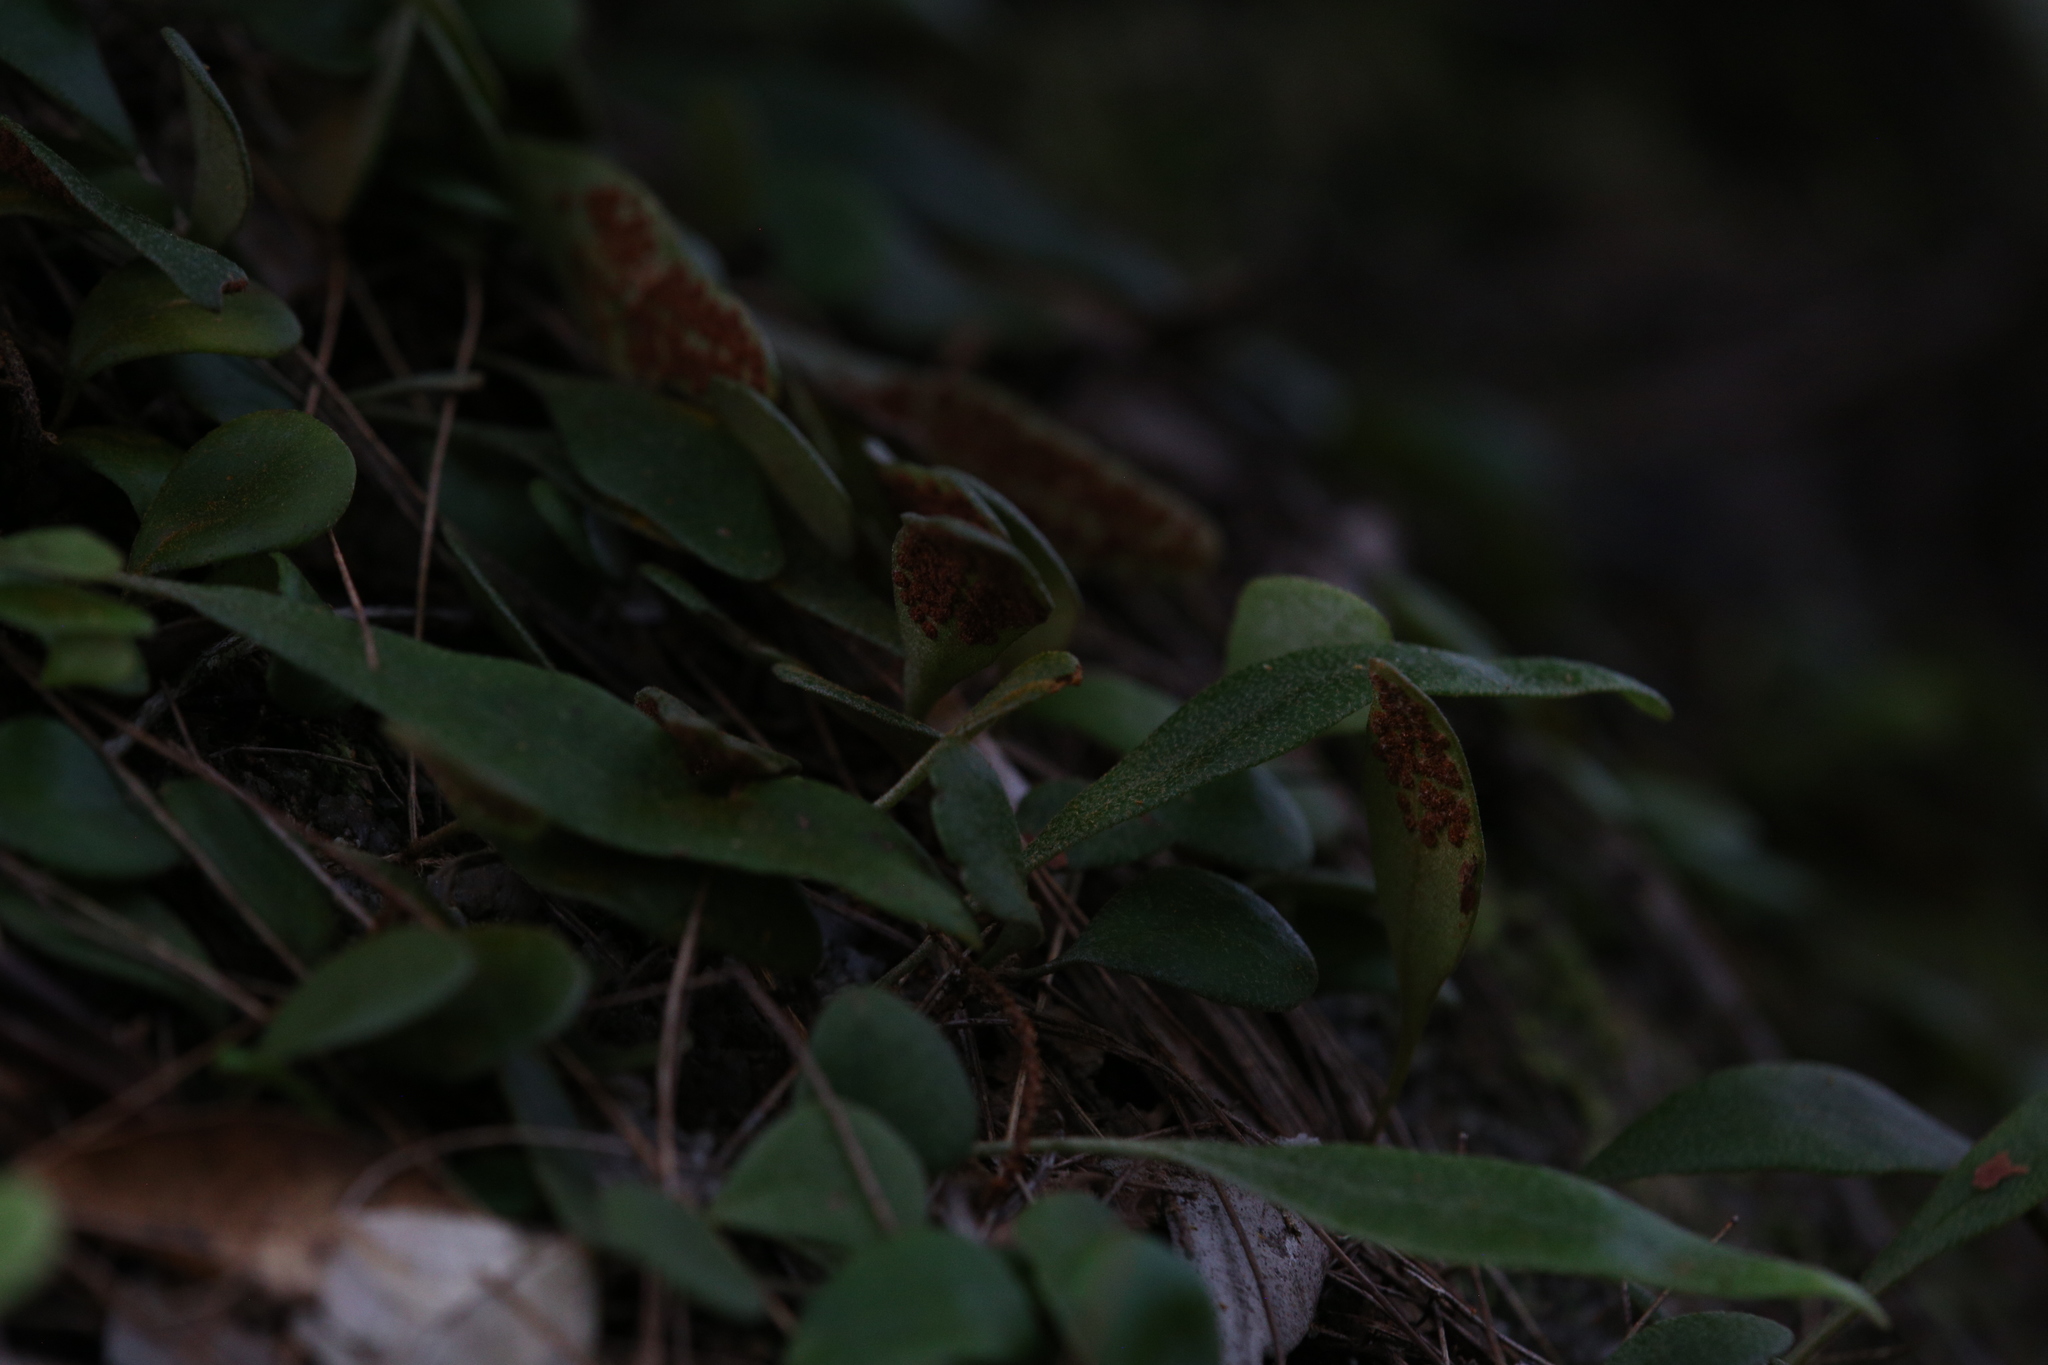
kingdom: Plantae
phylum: Tracheophyta
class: Polypodiopsida
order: Polypodiales
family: Polypodiaceae
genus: Pyrrosia
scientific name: Pyrrosia rupestris
